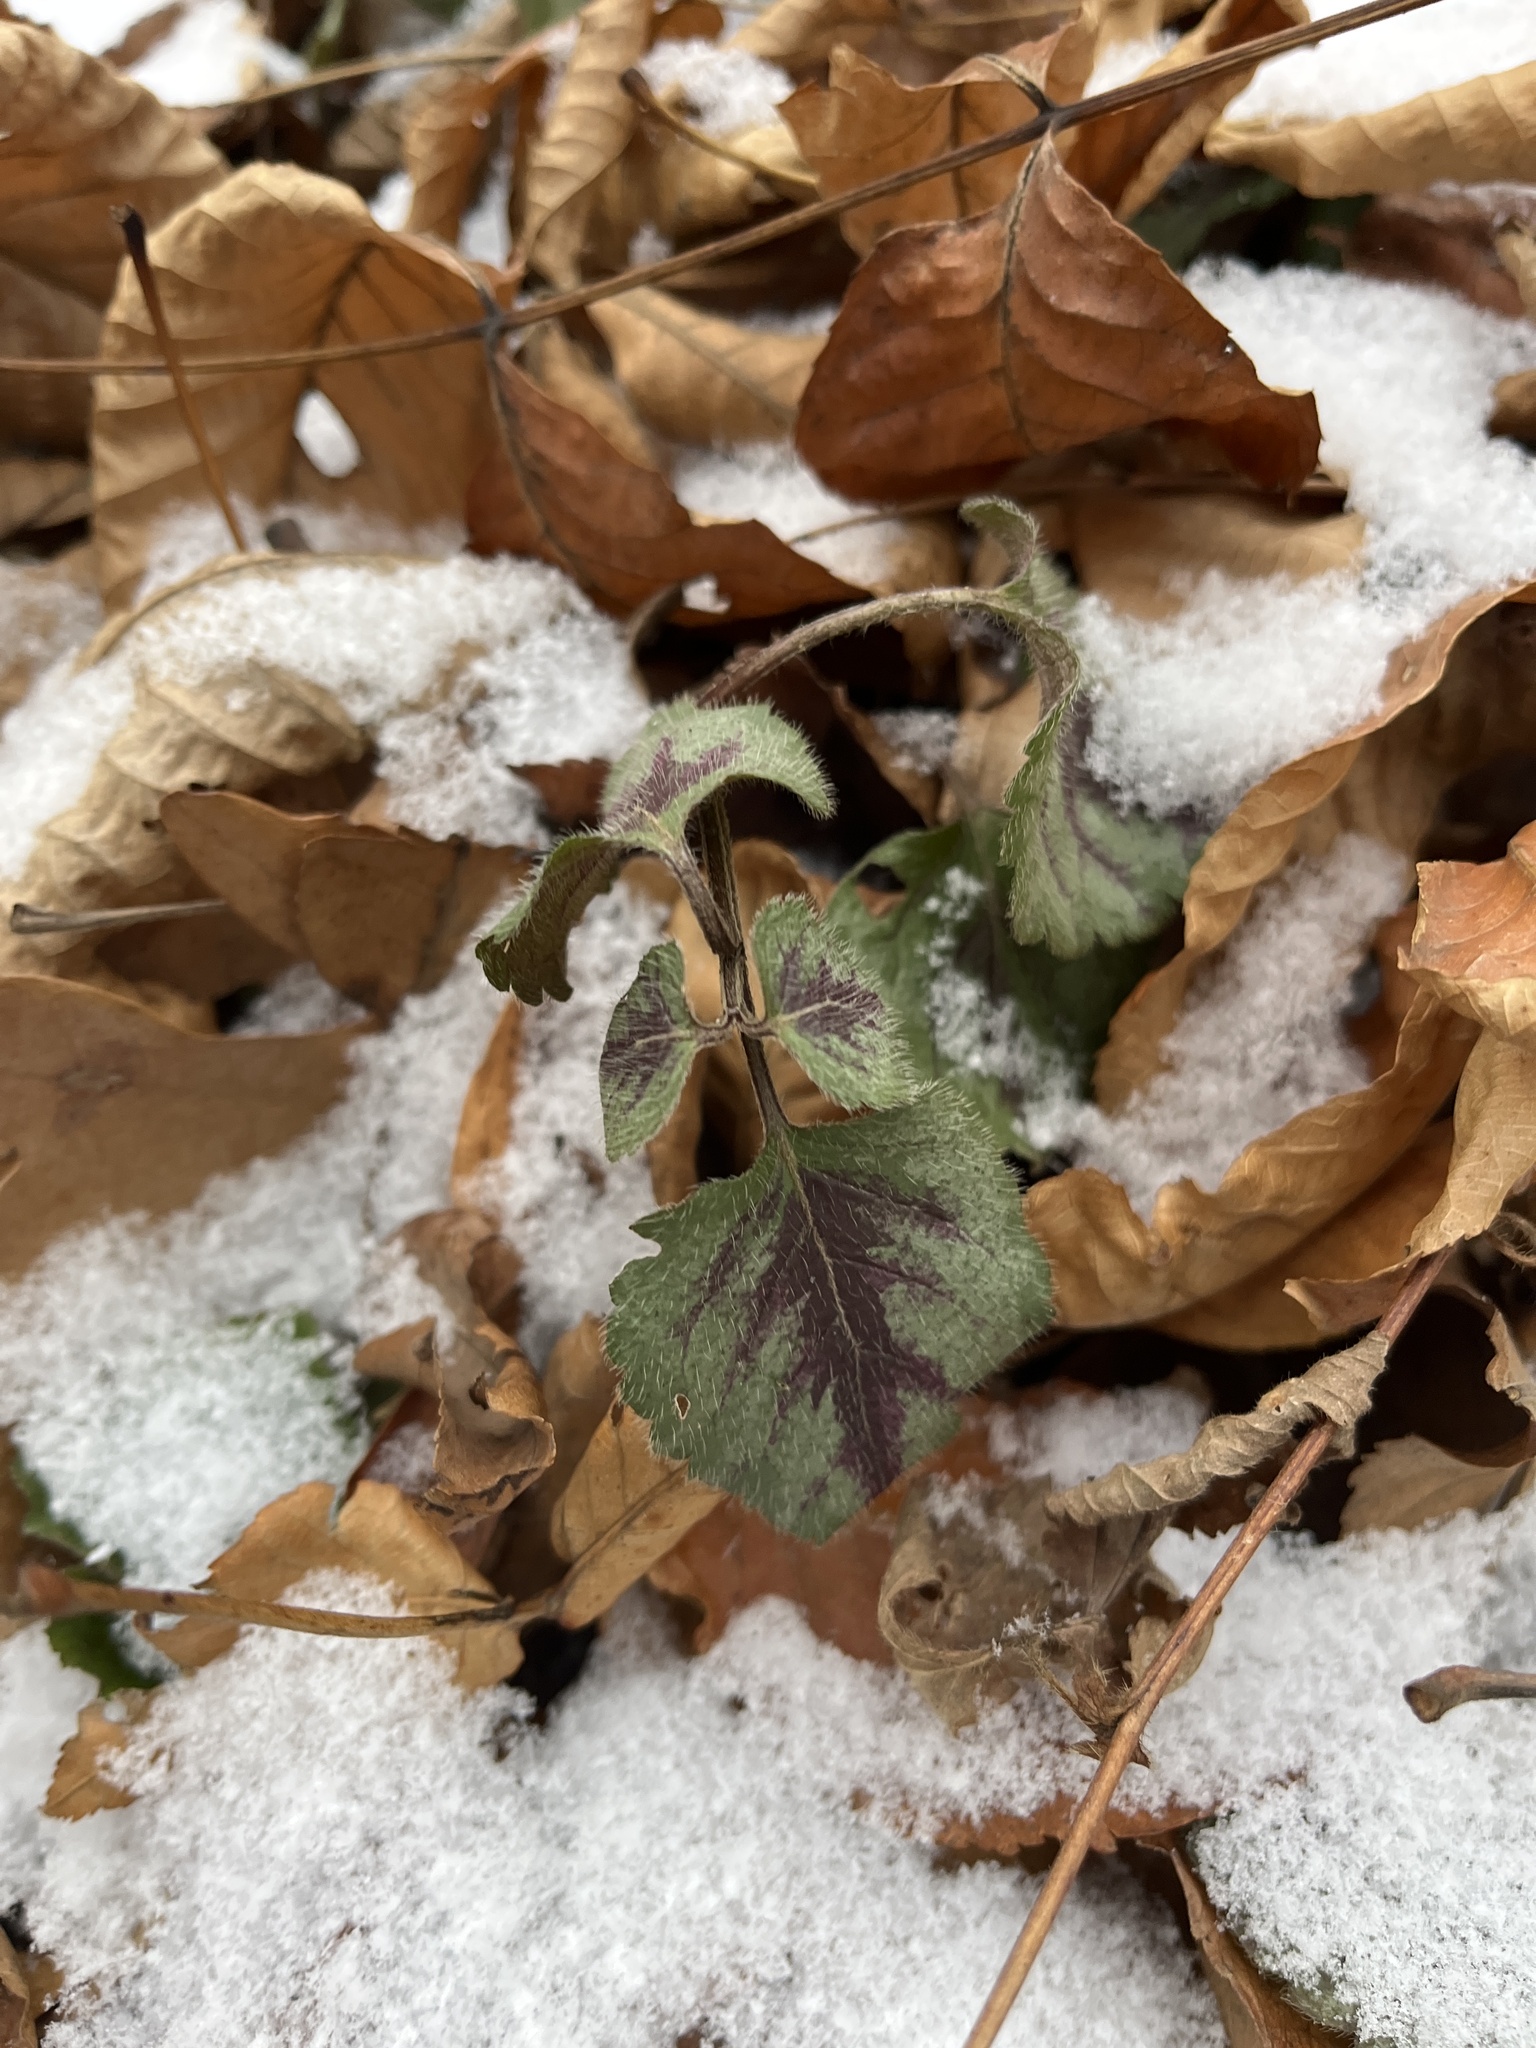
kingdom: Plantae
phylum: Tracheophyta
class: Magnoliopsida
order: Lamiales
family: Lamiaceae
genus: Lamium
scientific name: Lamium galeobdolon
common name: Yellow archangel
